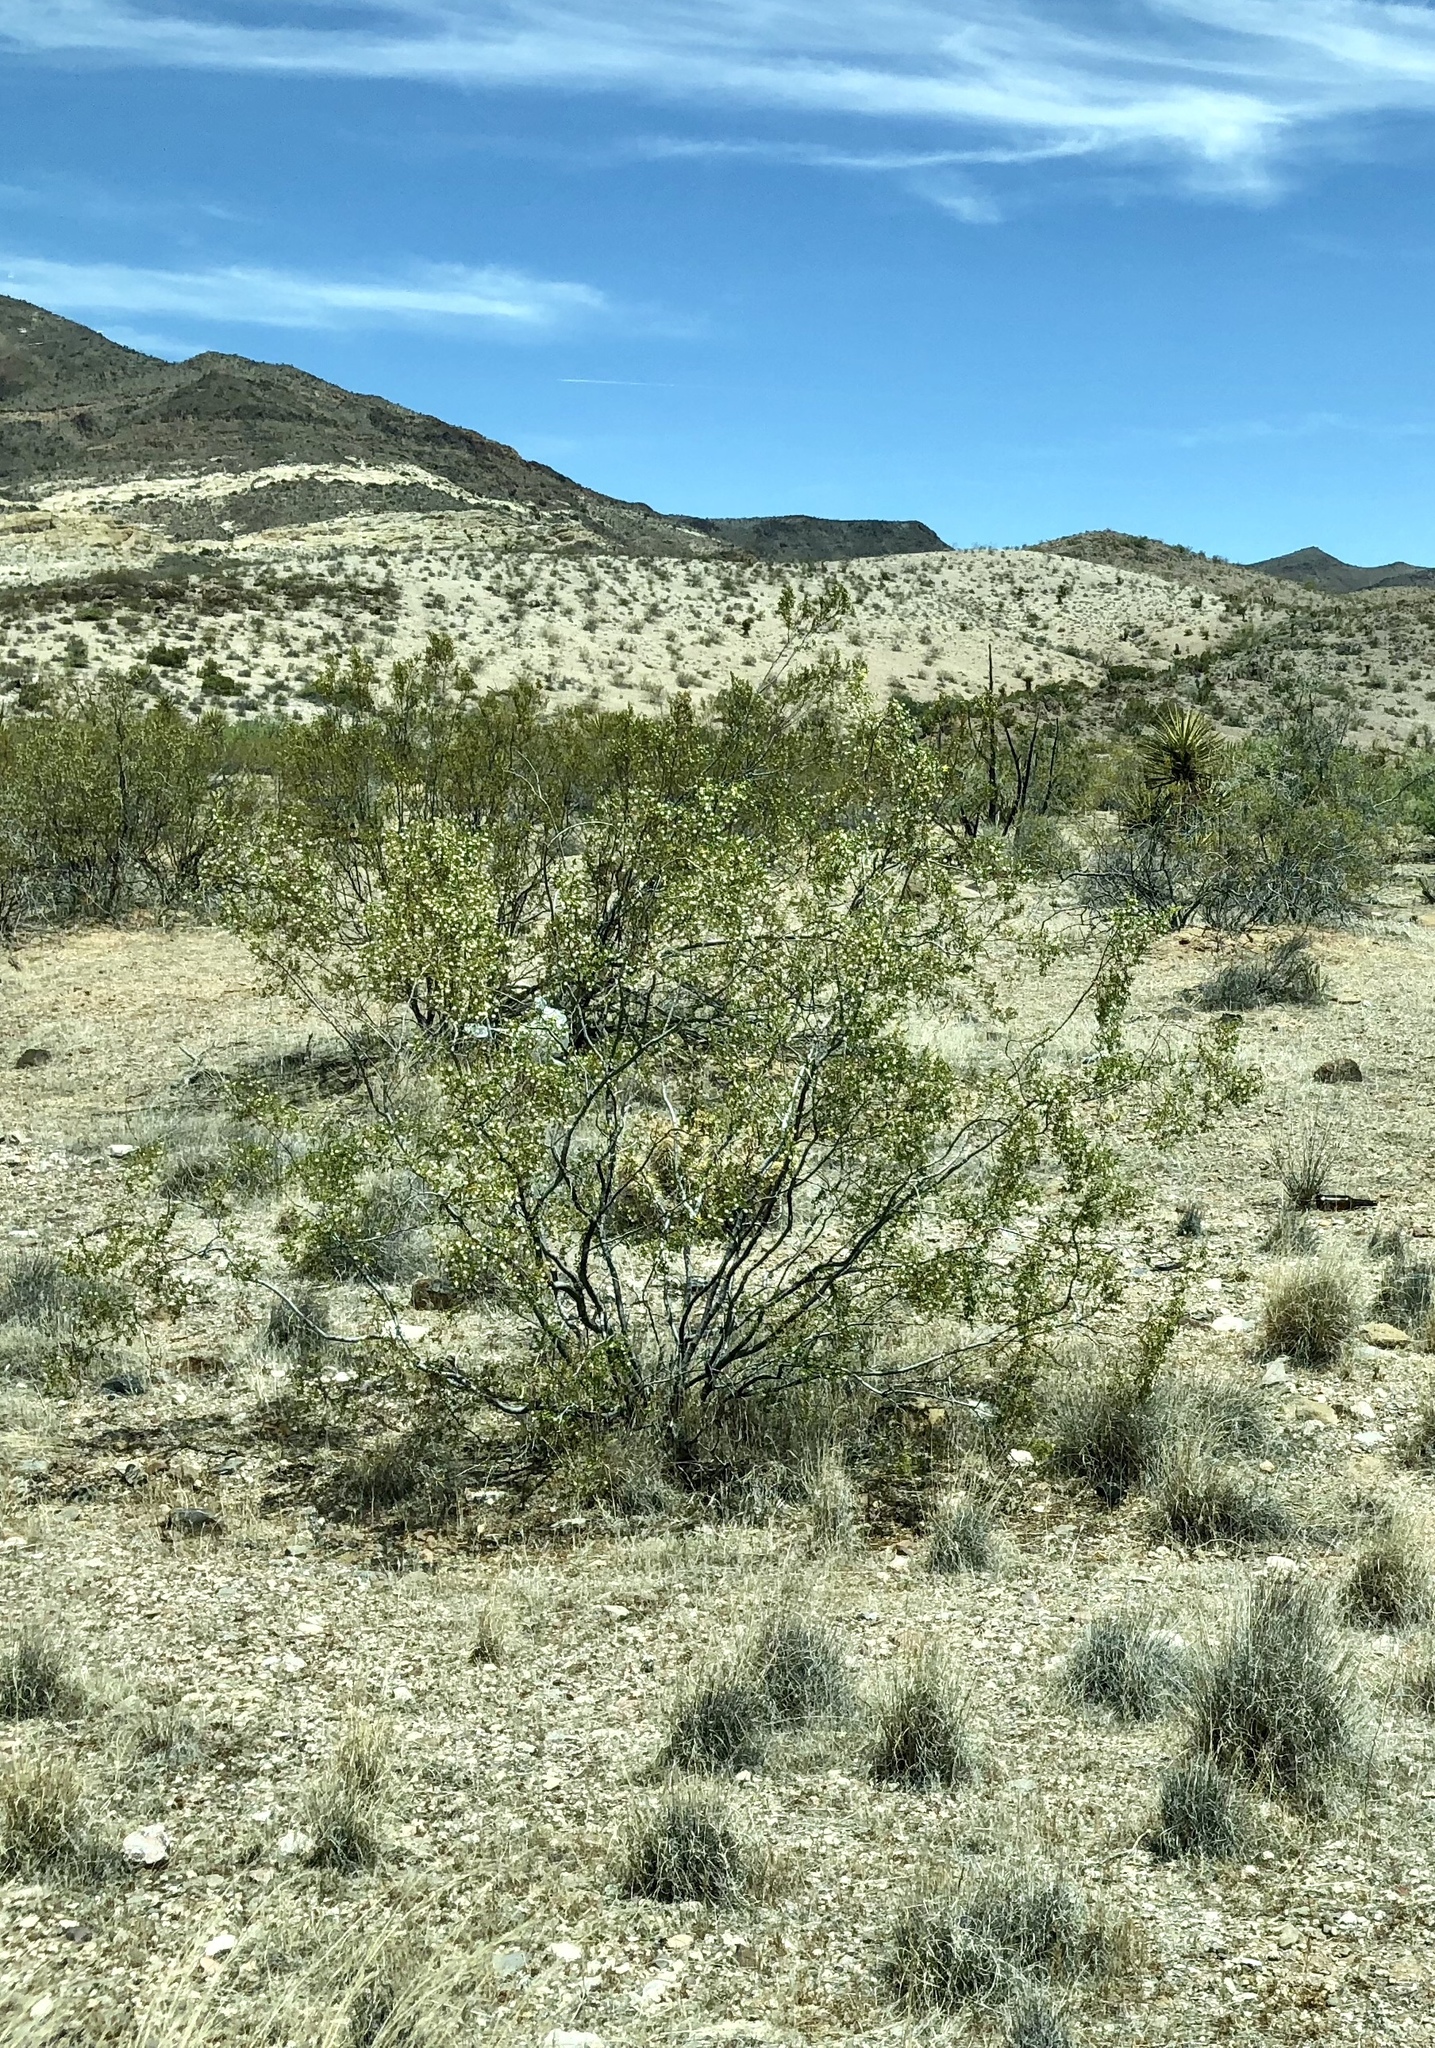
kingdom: Plantae
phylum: Tracheophyta
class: Magnoliopsida
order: Zygophyllales
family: Zygophyllaceae
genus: Larrea
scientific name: Larrea tridentata
